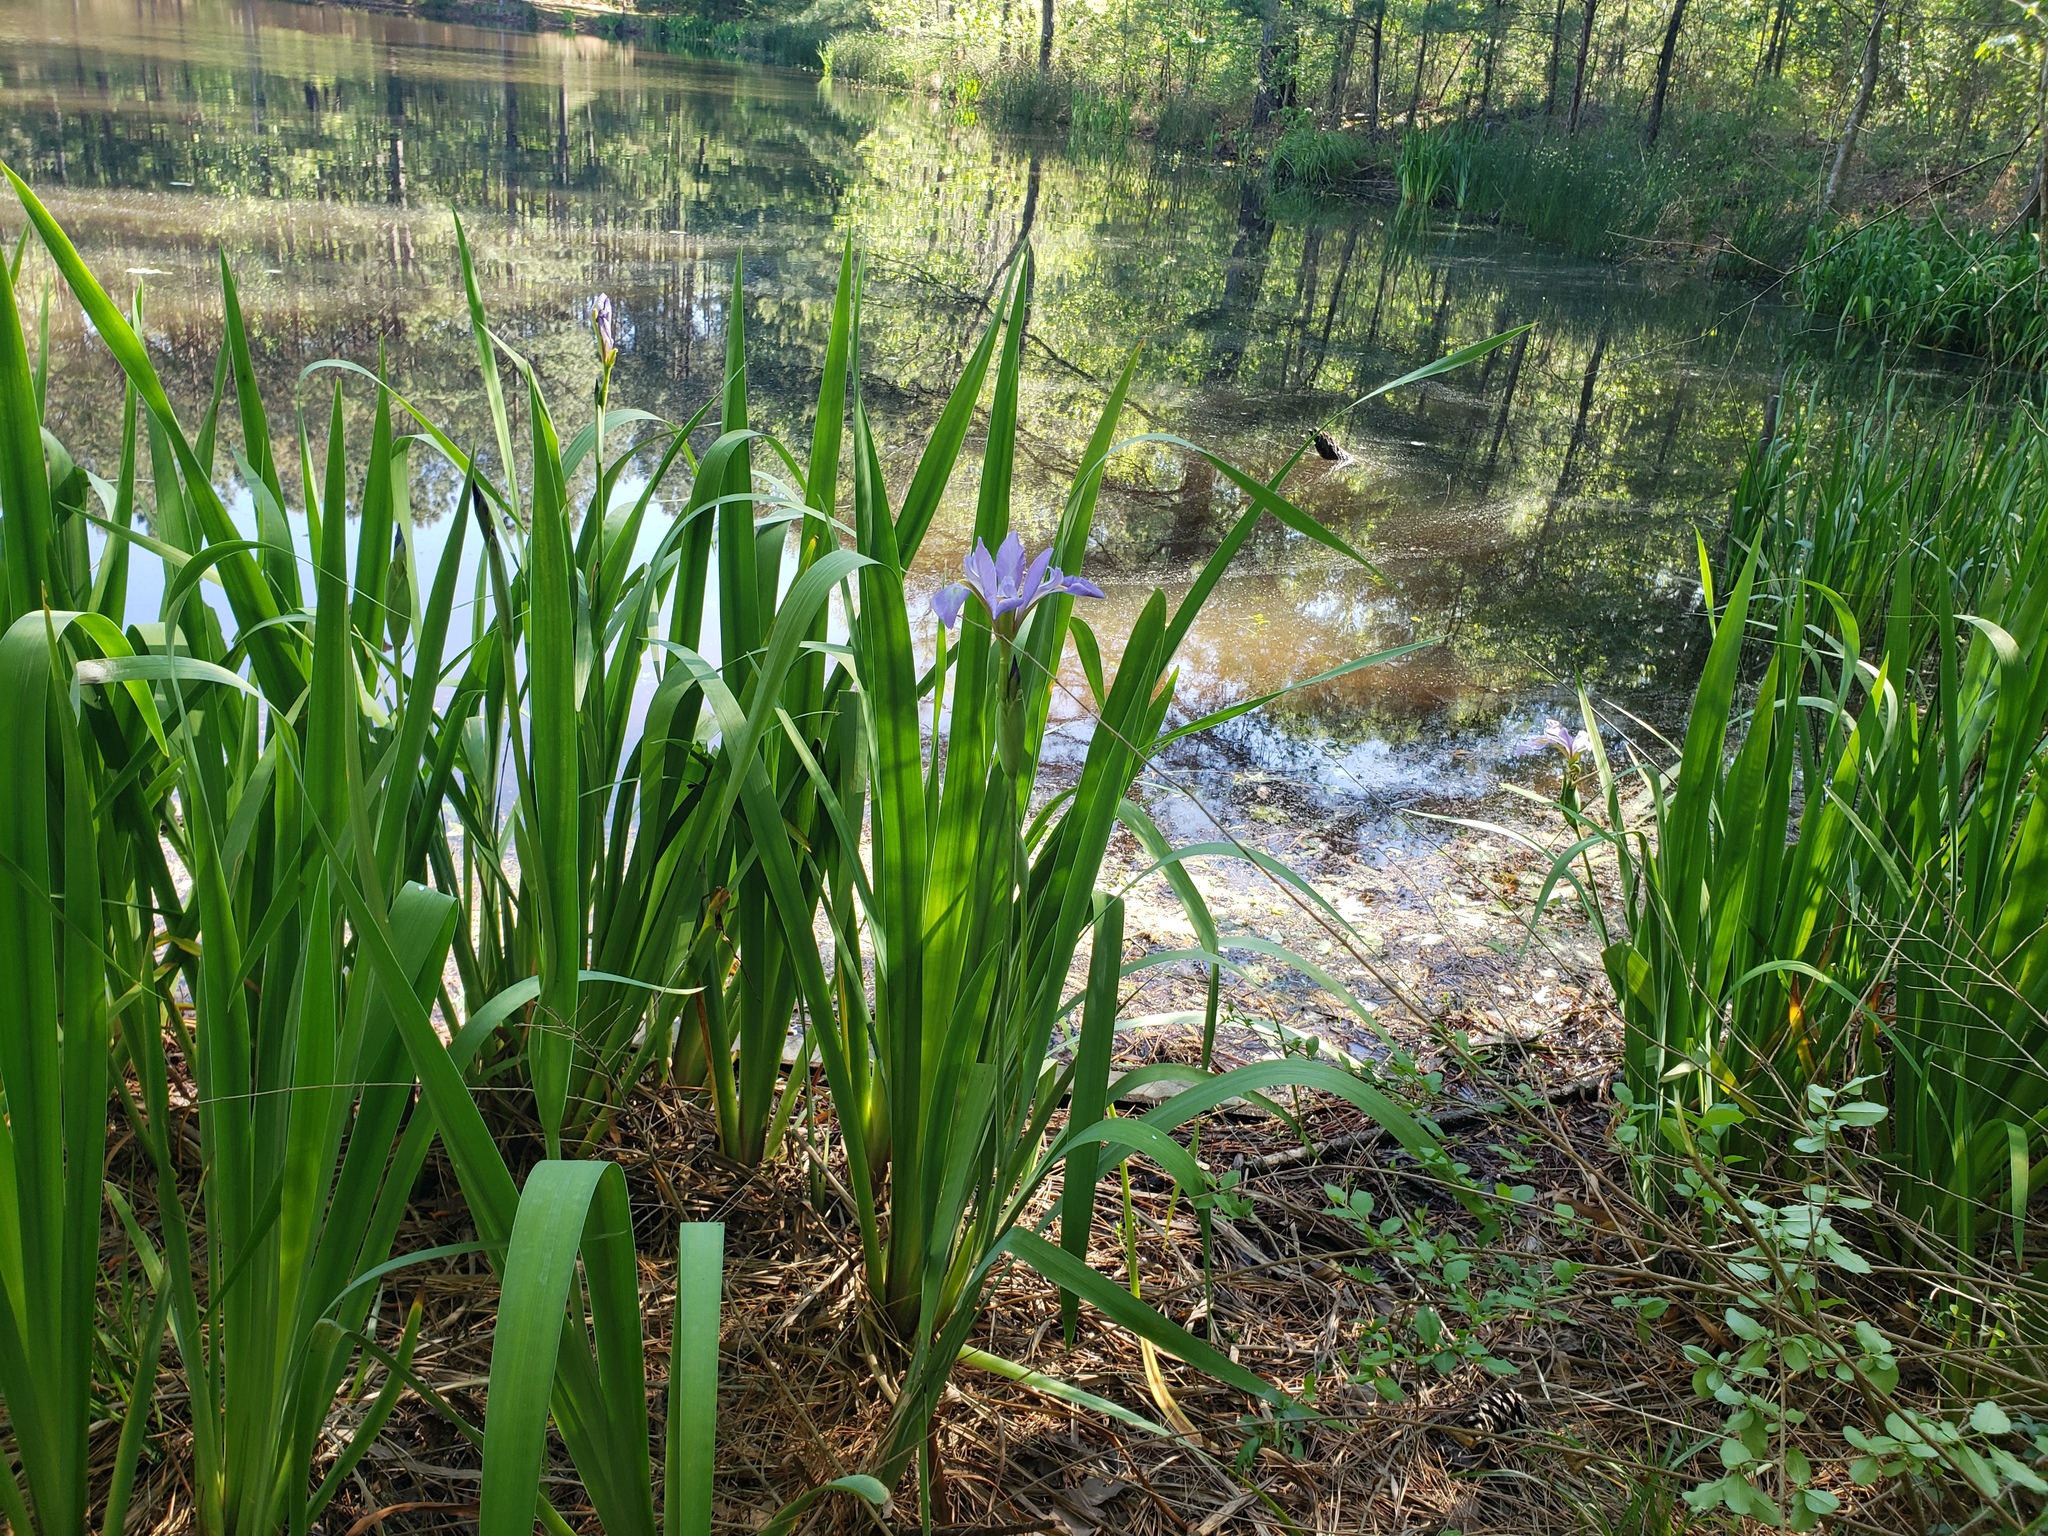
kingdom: Plantae
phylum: Tracheophyta
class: Liliopsida
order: Asparagales
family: Iridaceae
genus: Iris
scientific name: Iris virginica
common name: Southern blue flag
